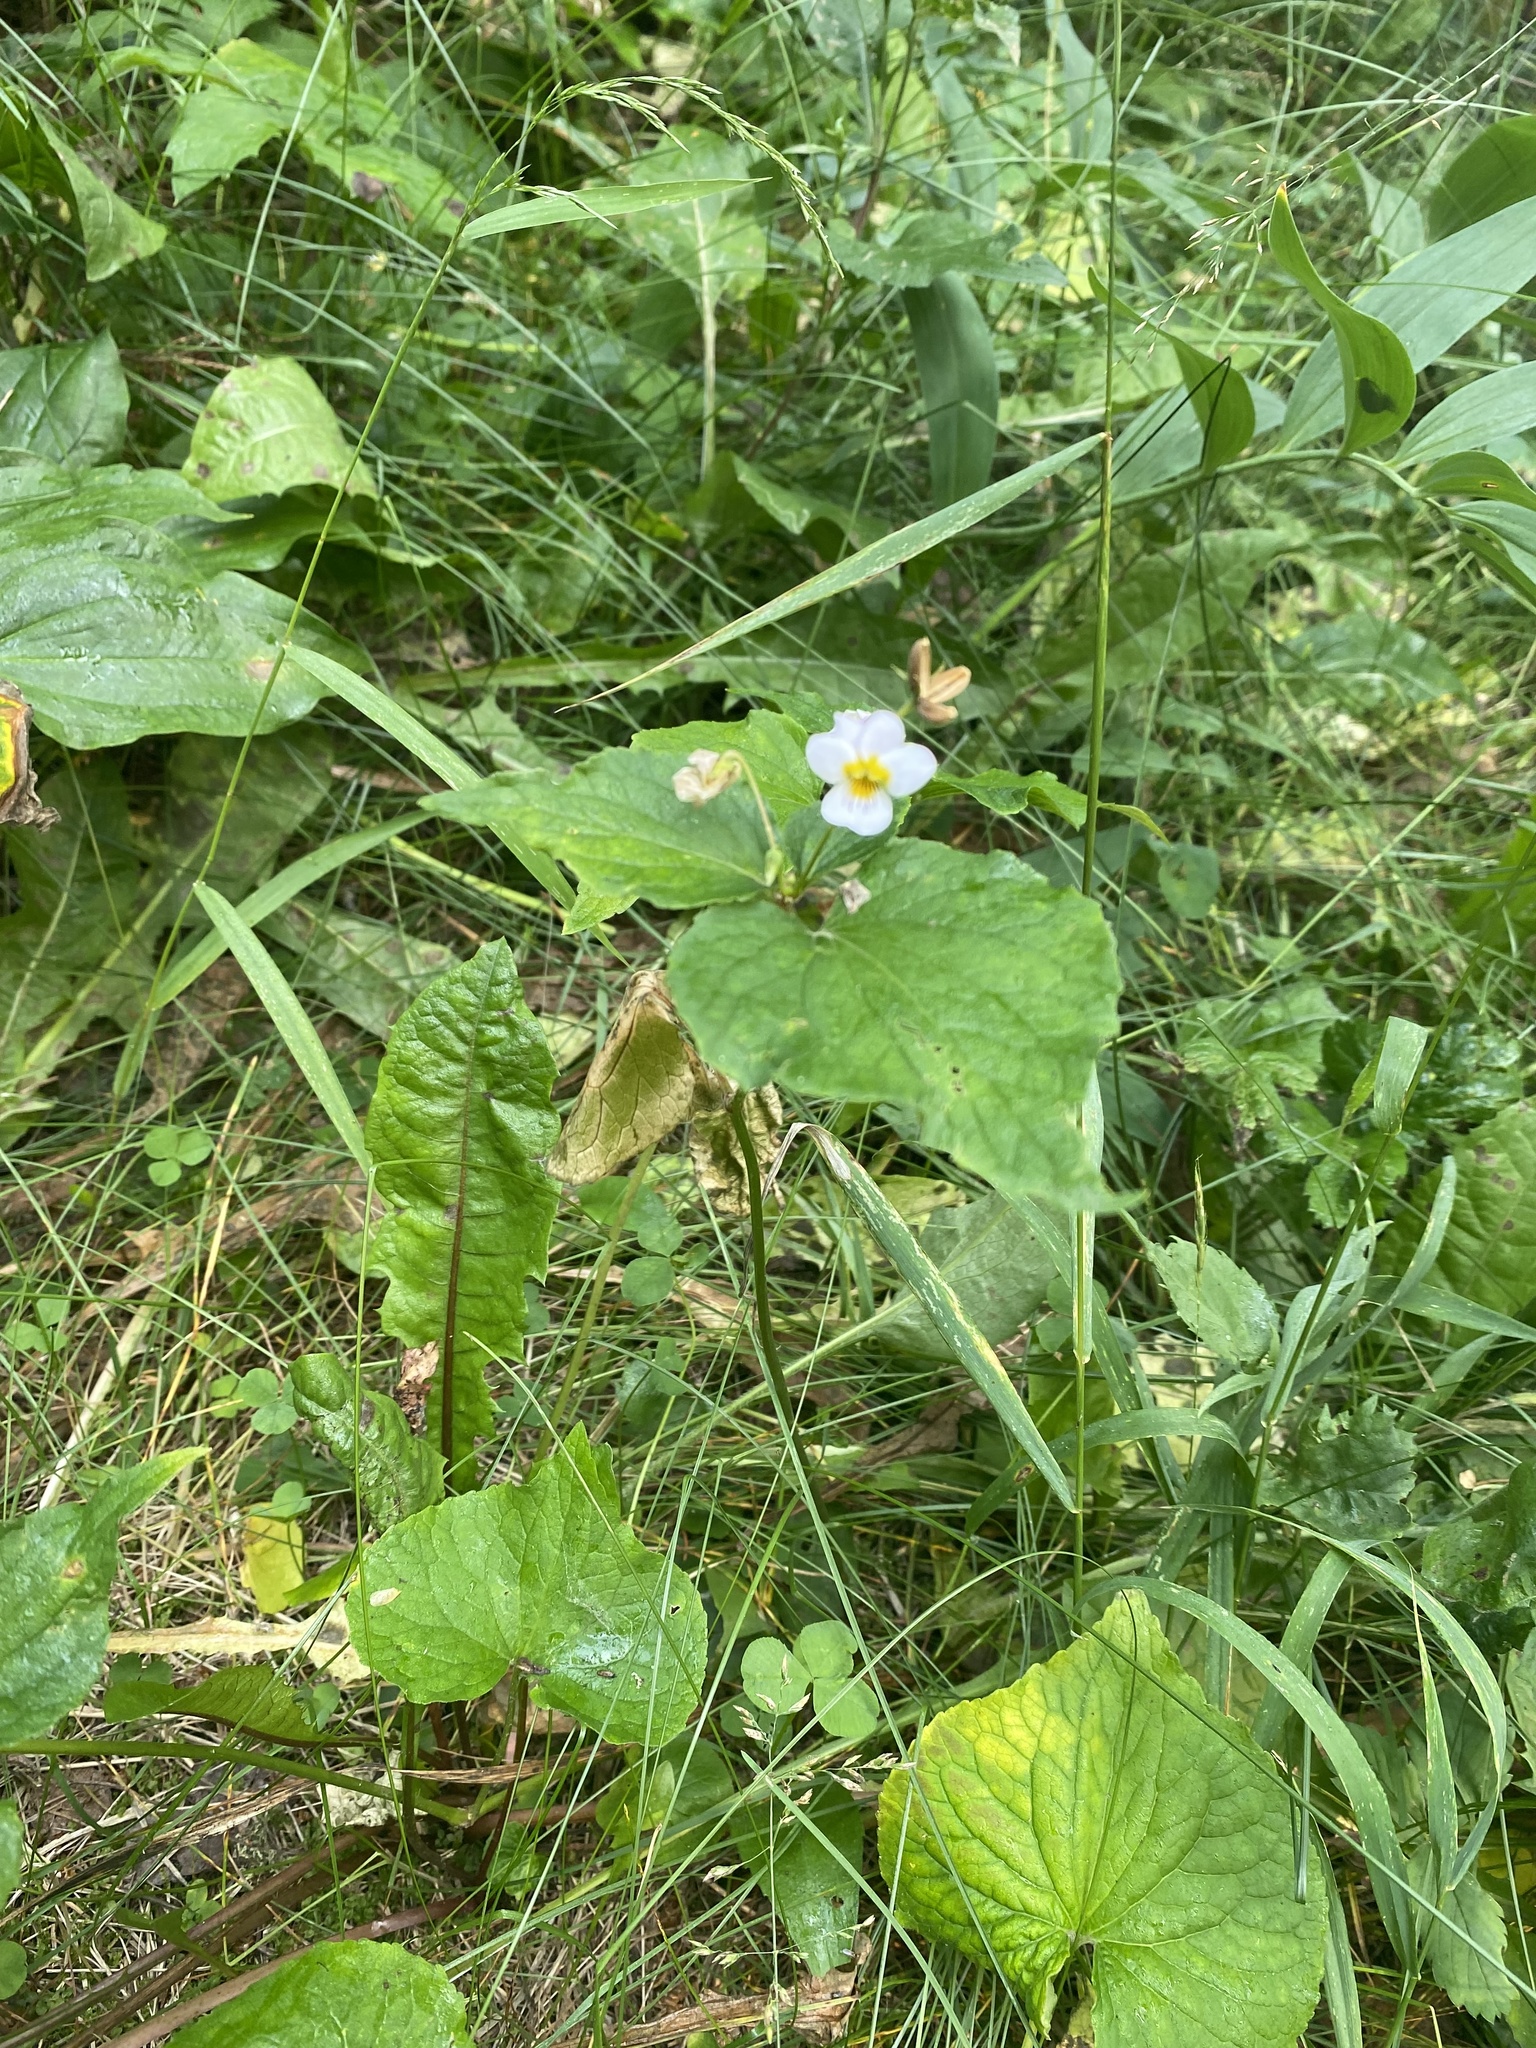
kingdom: Plantae
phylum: Tracheophyta
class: Magnoliopsida
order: Malpighiales
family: Violaceae
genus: Viola
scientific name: Viola canadensis
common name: Canada violet
